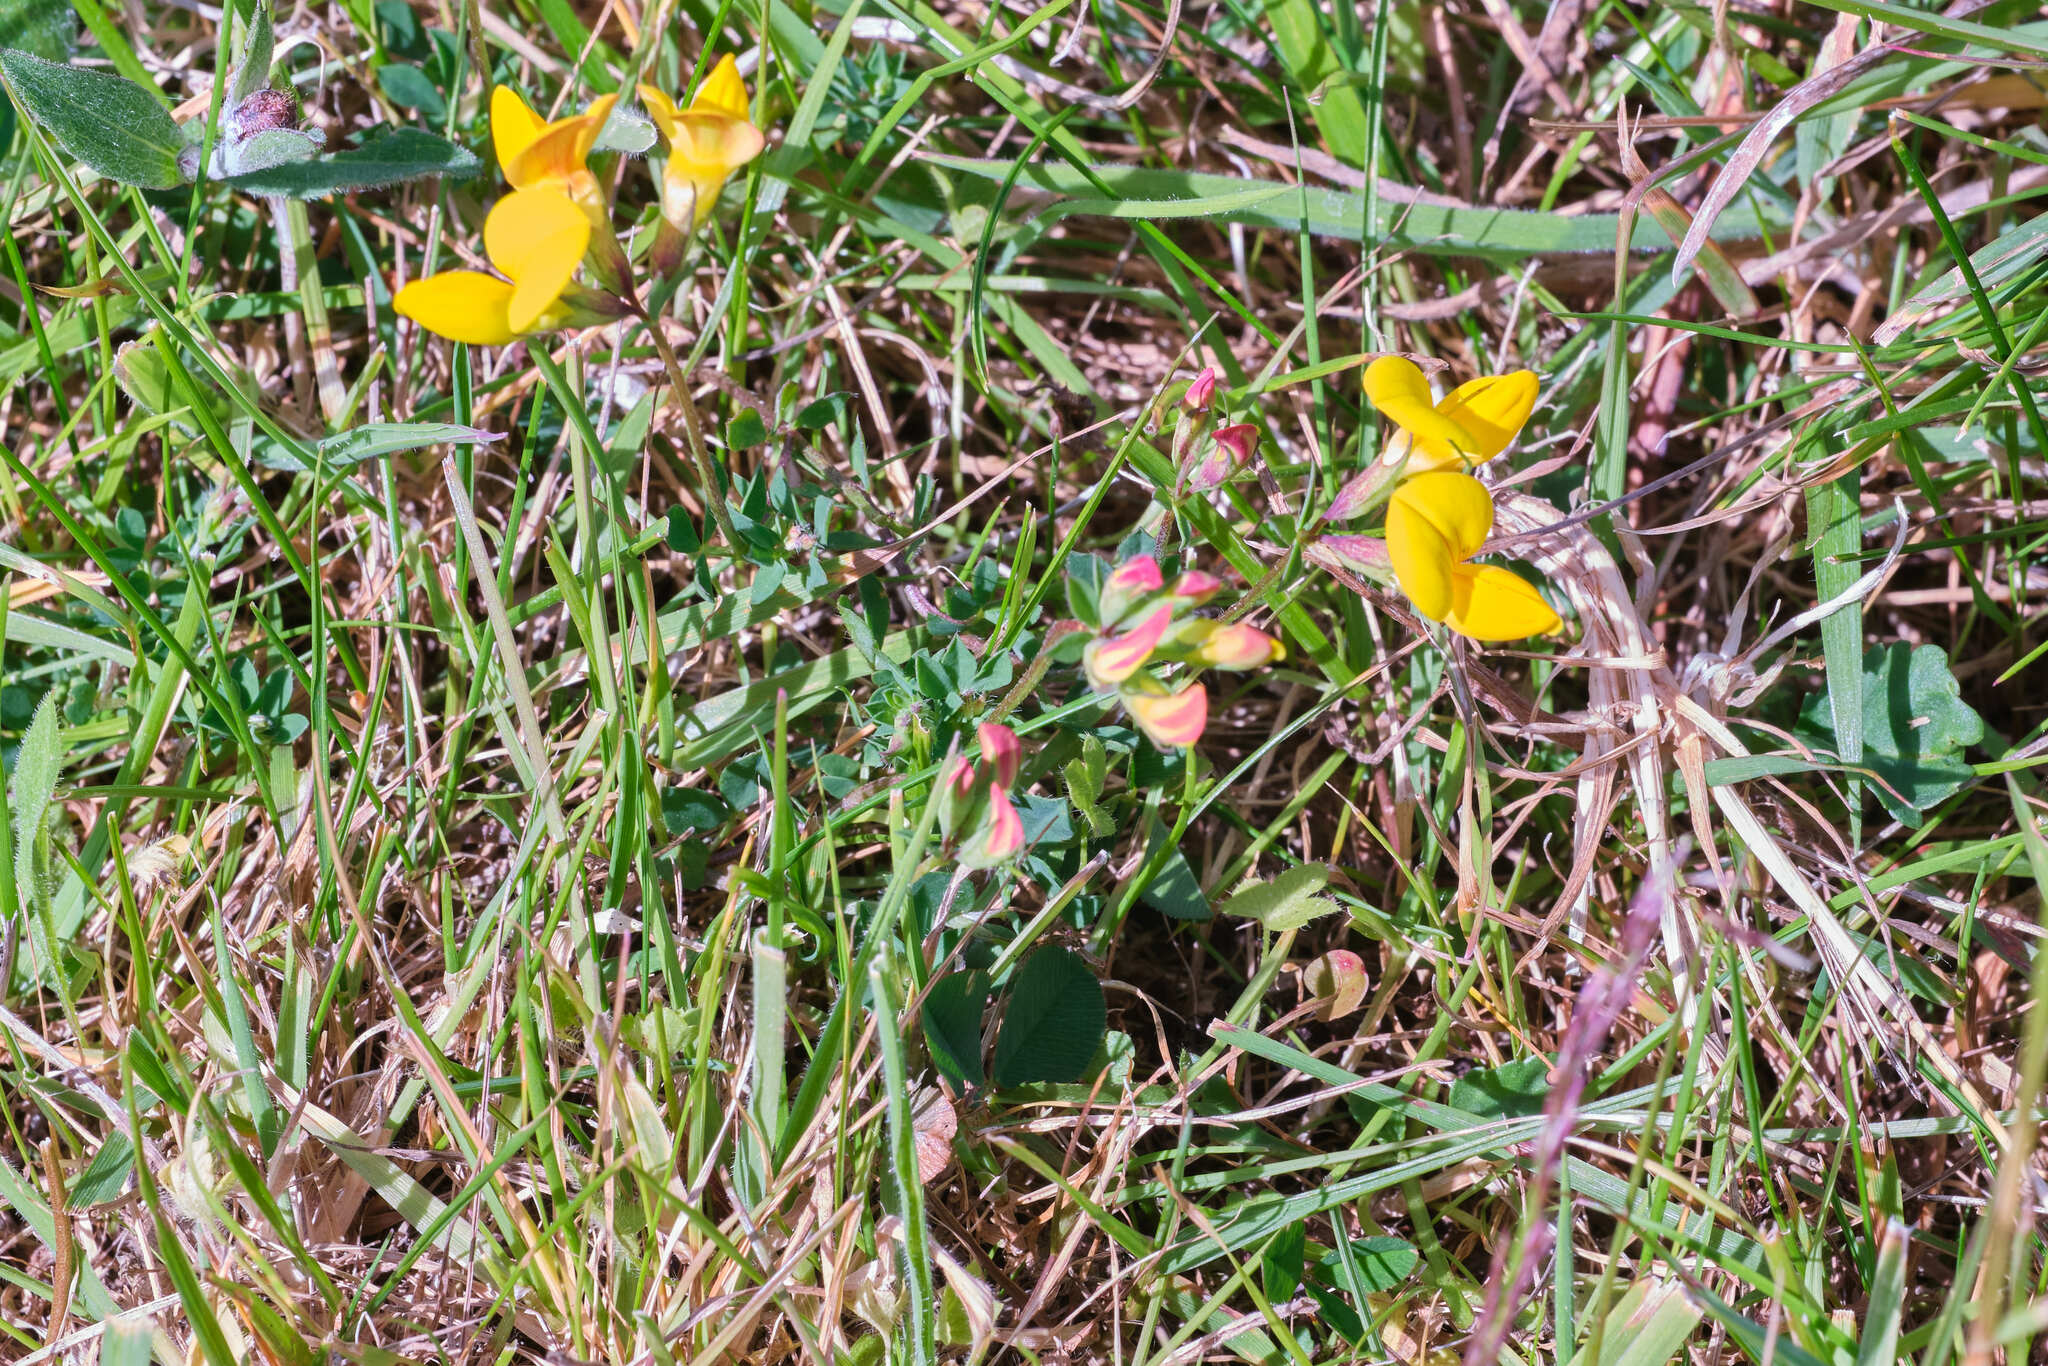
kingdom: Plantae
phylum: Tracheophyta
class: Magnoliopsida
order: Fabales
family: Fabaceae
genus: Lotus
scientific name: Lotus corniculatus
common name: Common bird's-foot-trefoil
